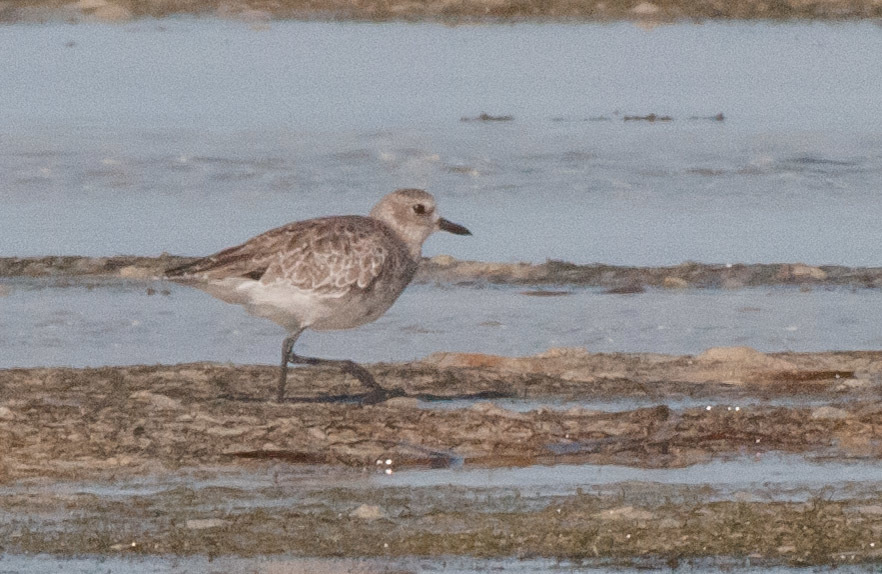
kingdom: Animalia
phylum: Chordata
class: Aves
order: Charadriiformes
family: Charadriidae
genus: Pluvialis
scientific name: Pluvialis squatarola
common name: Grey plover
